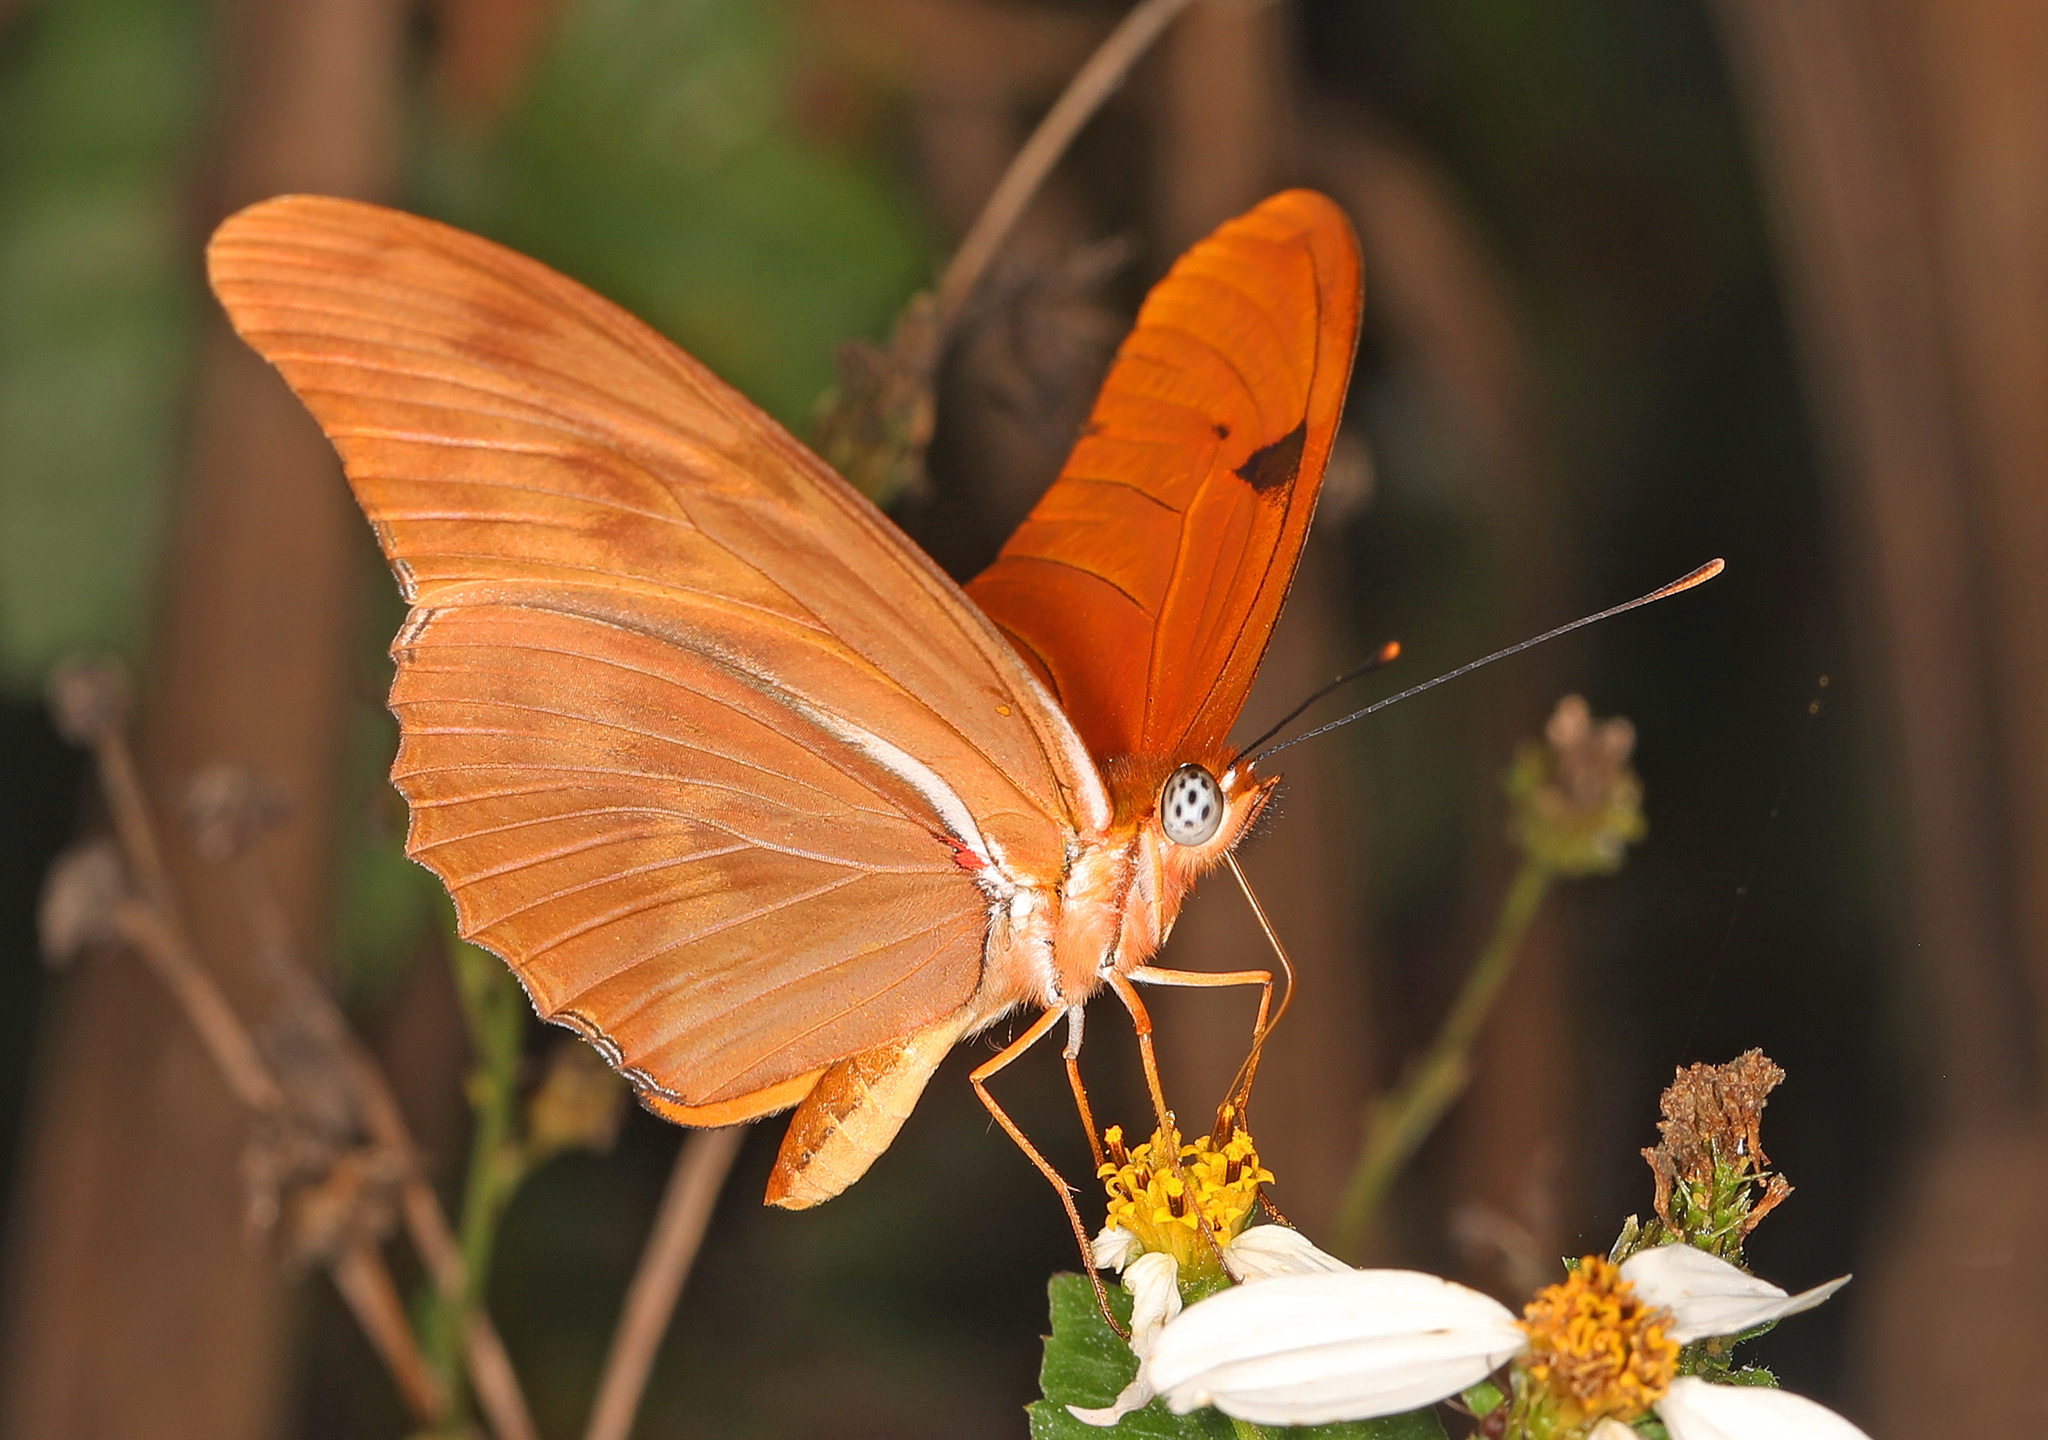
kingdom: Animalia
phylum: Arthropoda
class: Insecta
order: Lepidoptera
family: Nymphalidae
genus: Dryas
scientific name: Dryas iulia
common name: Flambeau
